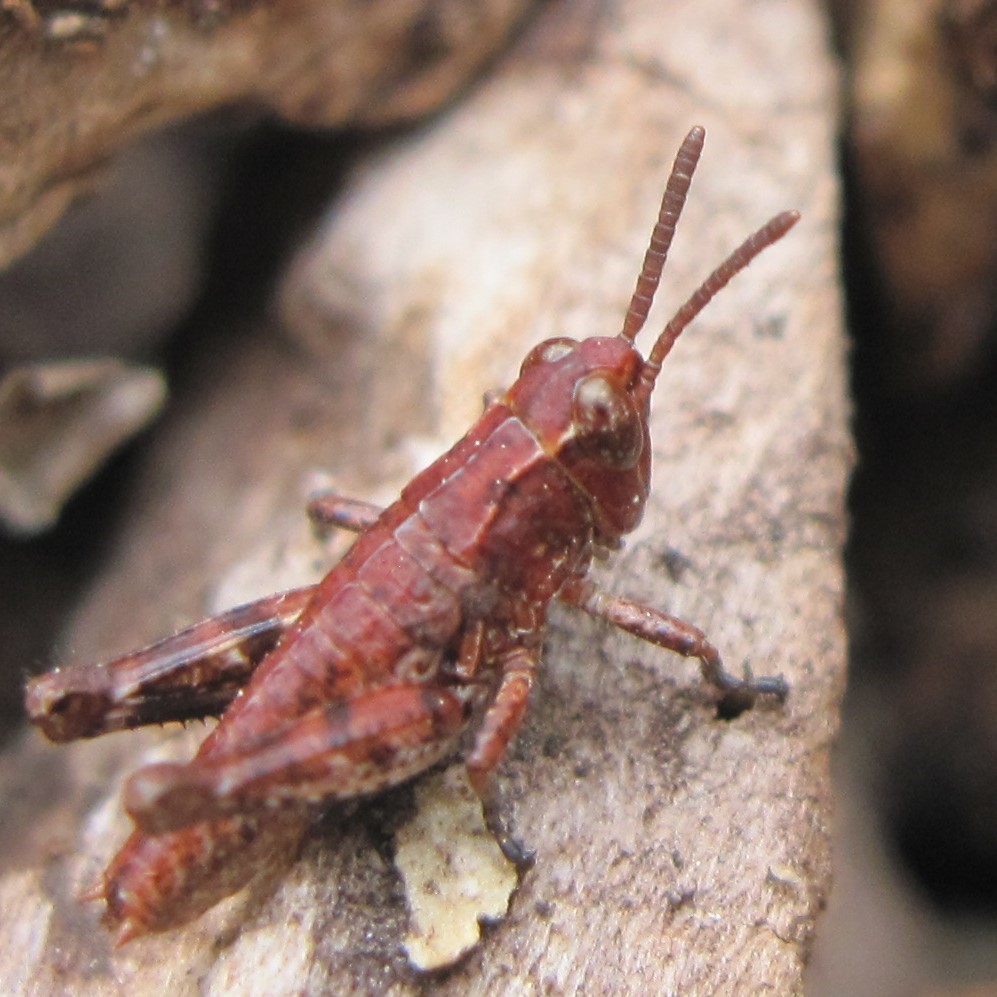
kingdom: Animalia
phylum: Arthropoda
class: Insecta
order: Orthoptera
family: Acrididae
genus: Phaulacridium
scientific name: Phaulacridium marginale
